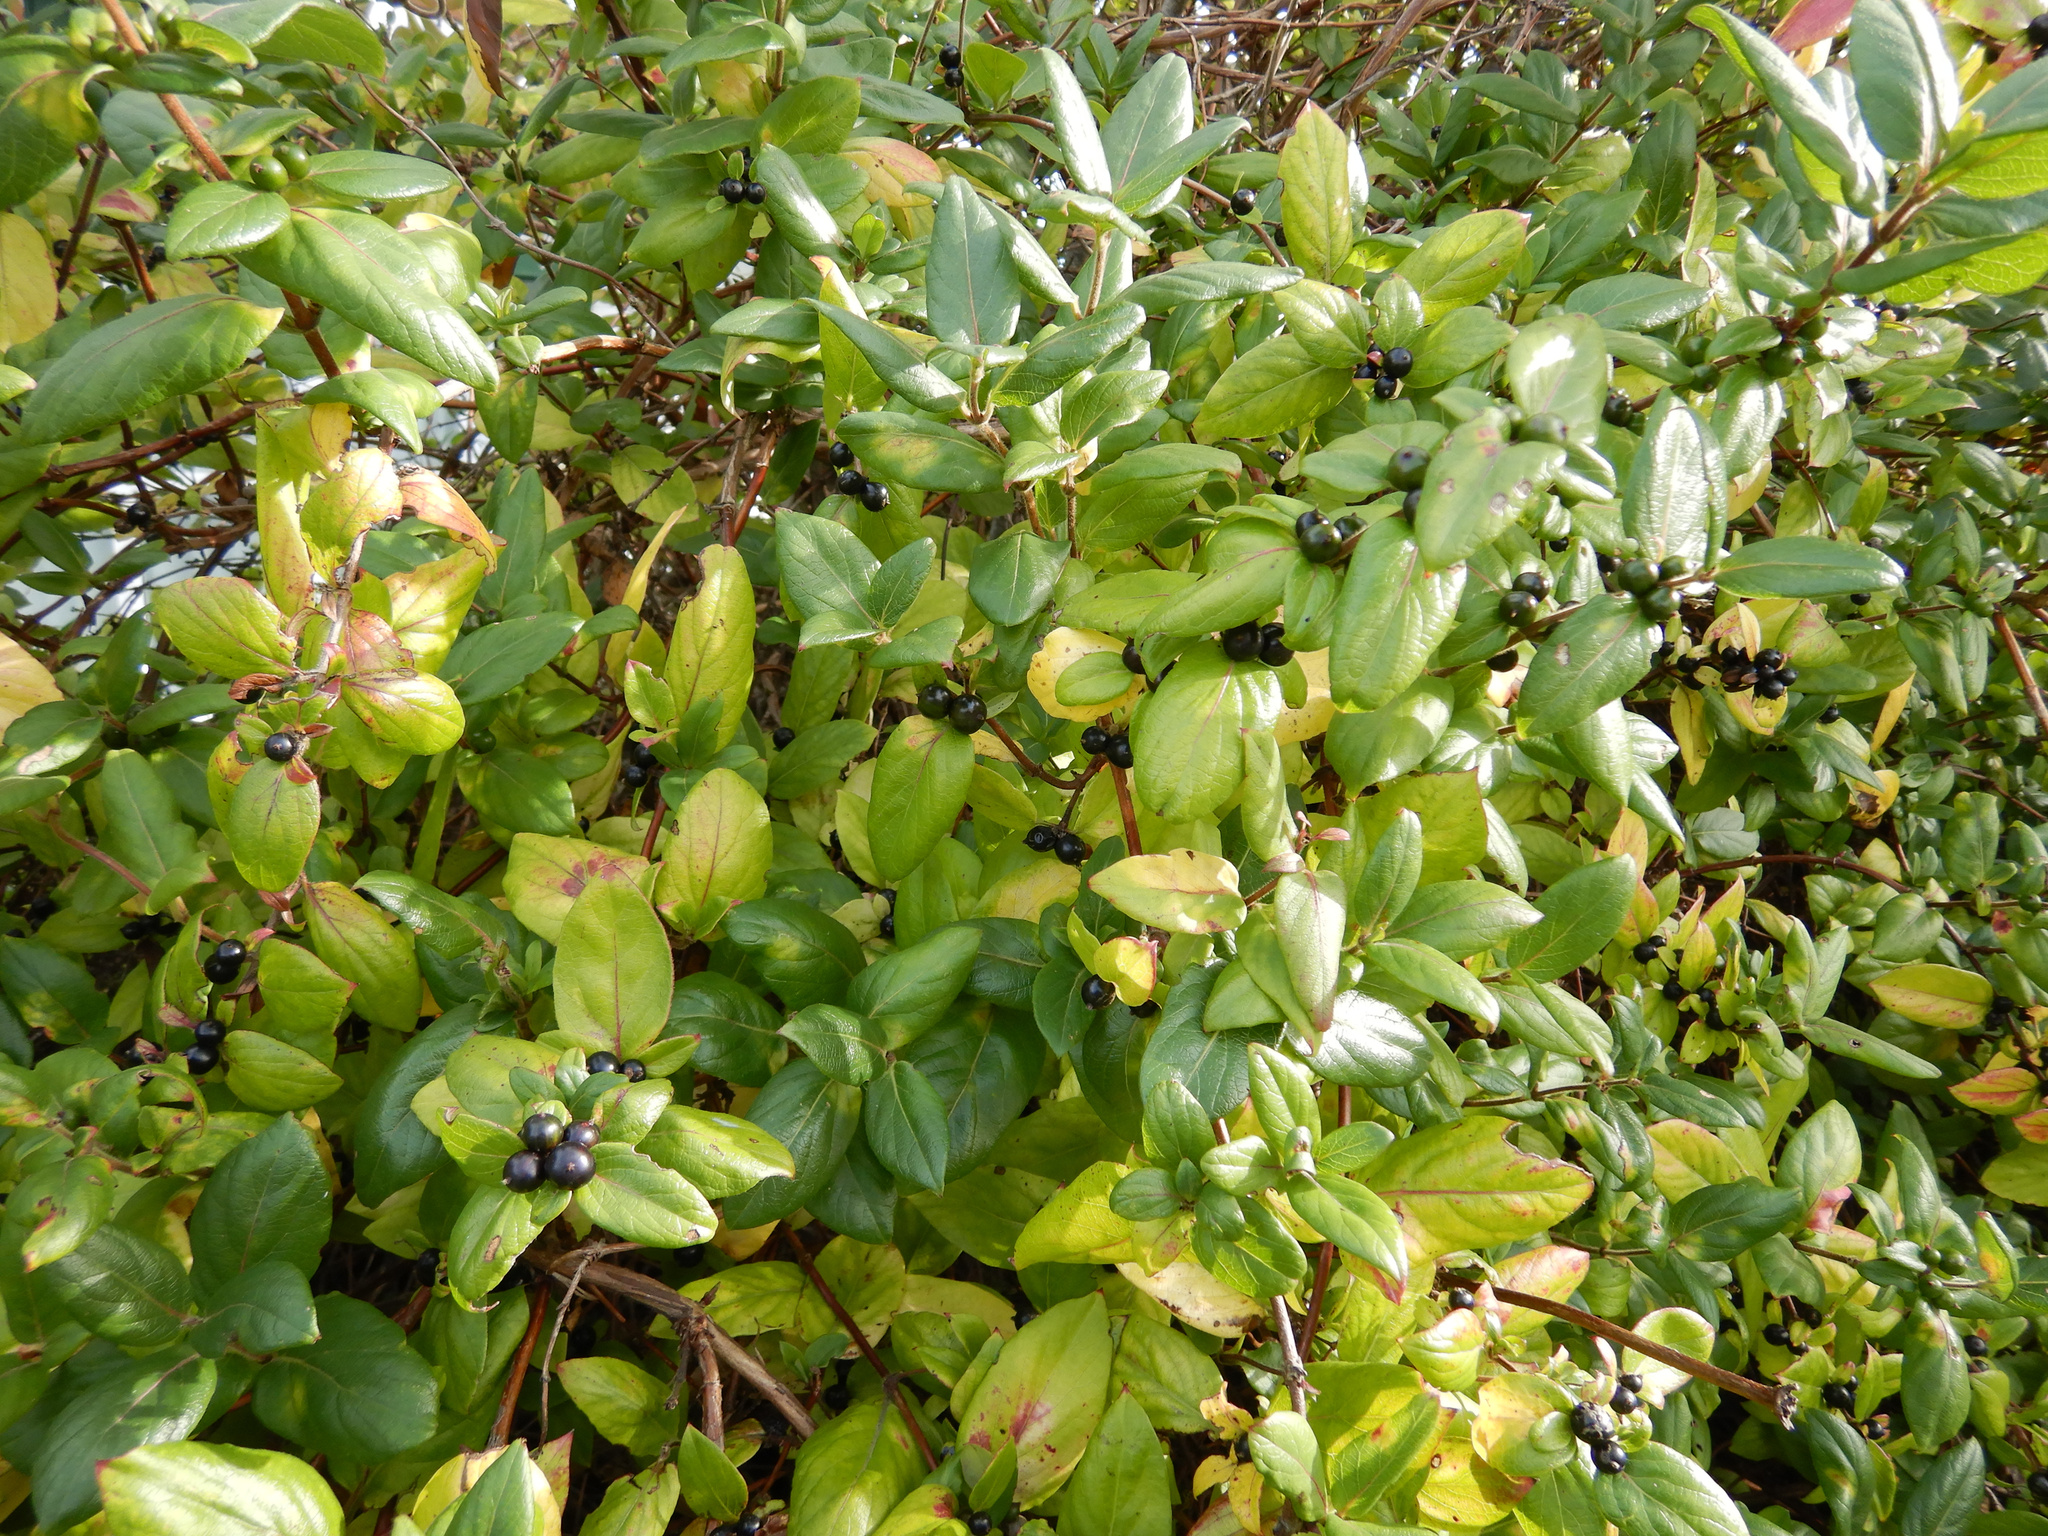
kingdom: Plantae
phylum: Tracheophyta
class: Magnoliopsida
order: Dipsacales
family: Caprifoliaceae
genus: Lonicera
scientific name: Lonicera japonica
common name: Japanese honeysuckle
